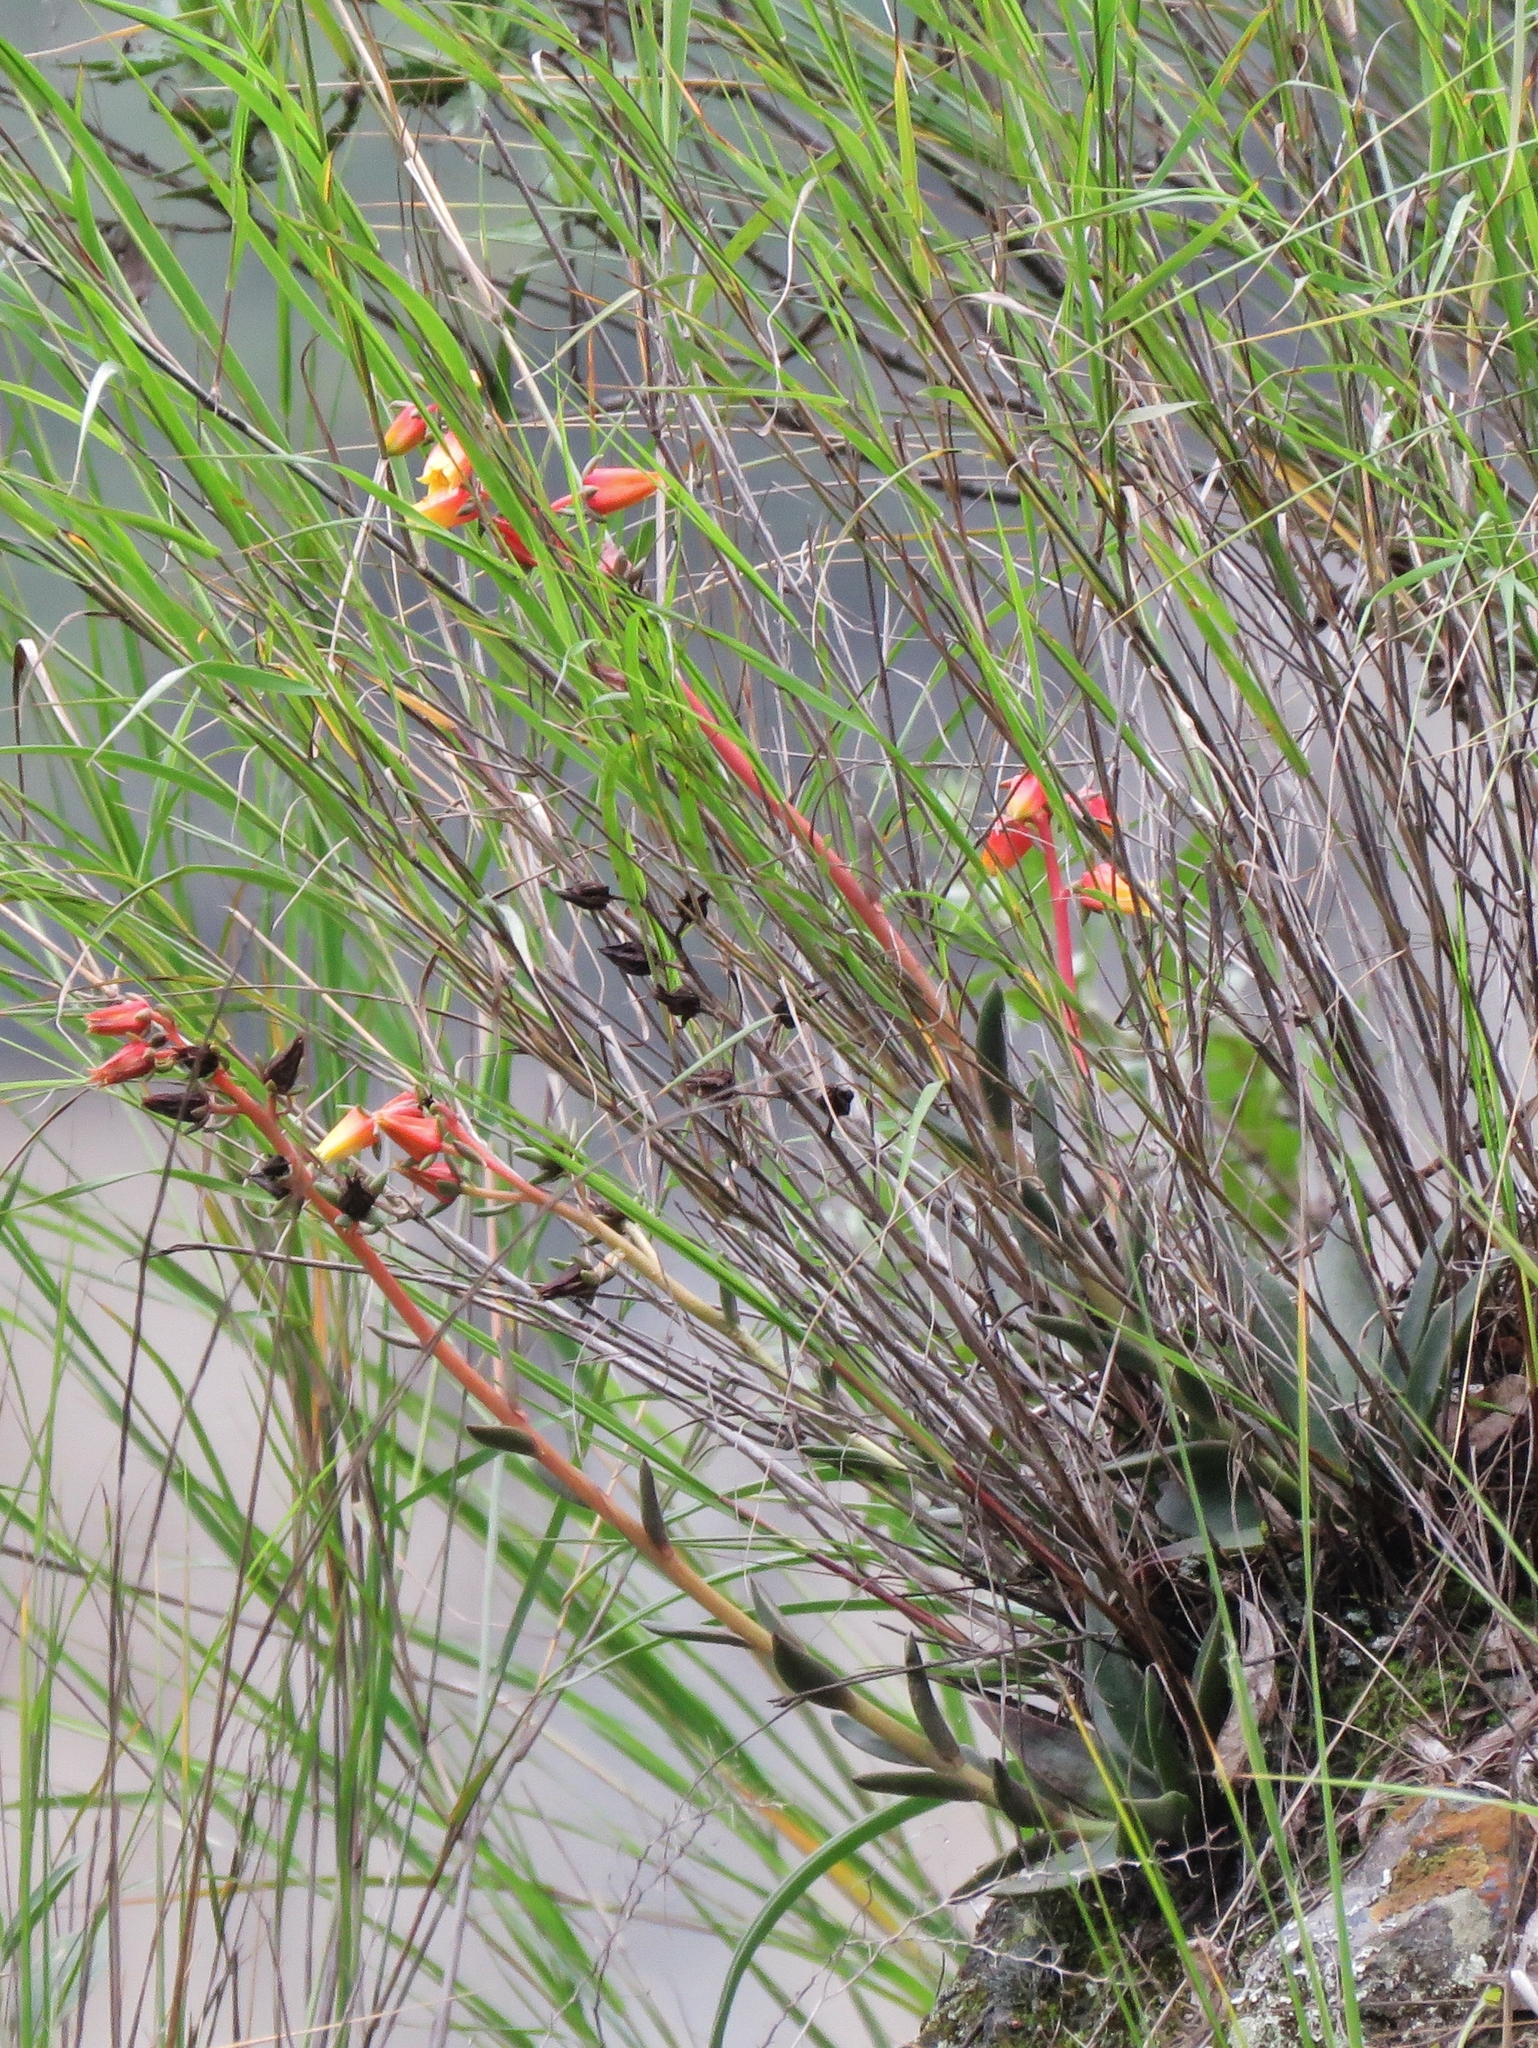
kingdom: Plantae
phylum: Tracheophyta
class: Magnoliopsida
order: Saxifragales
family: Crassulaceae
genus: Echeveria
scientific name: Echeveria chiclensis
